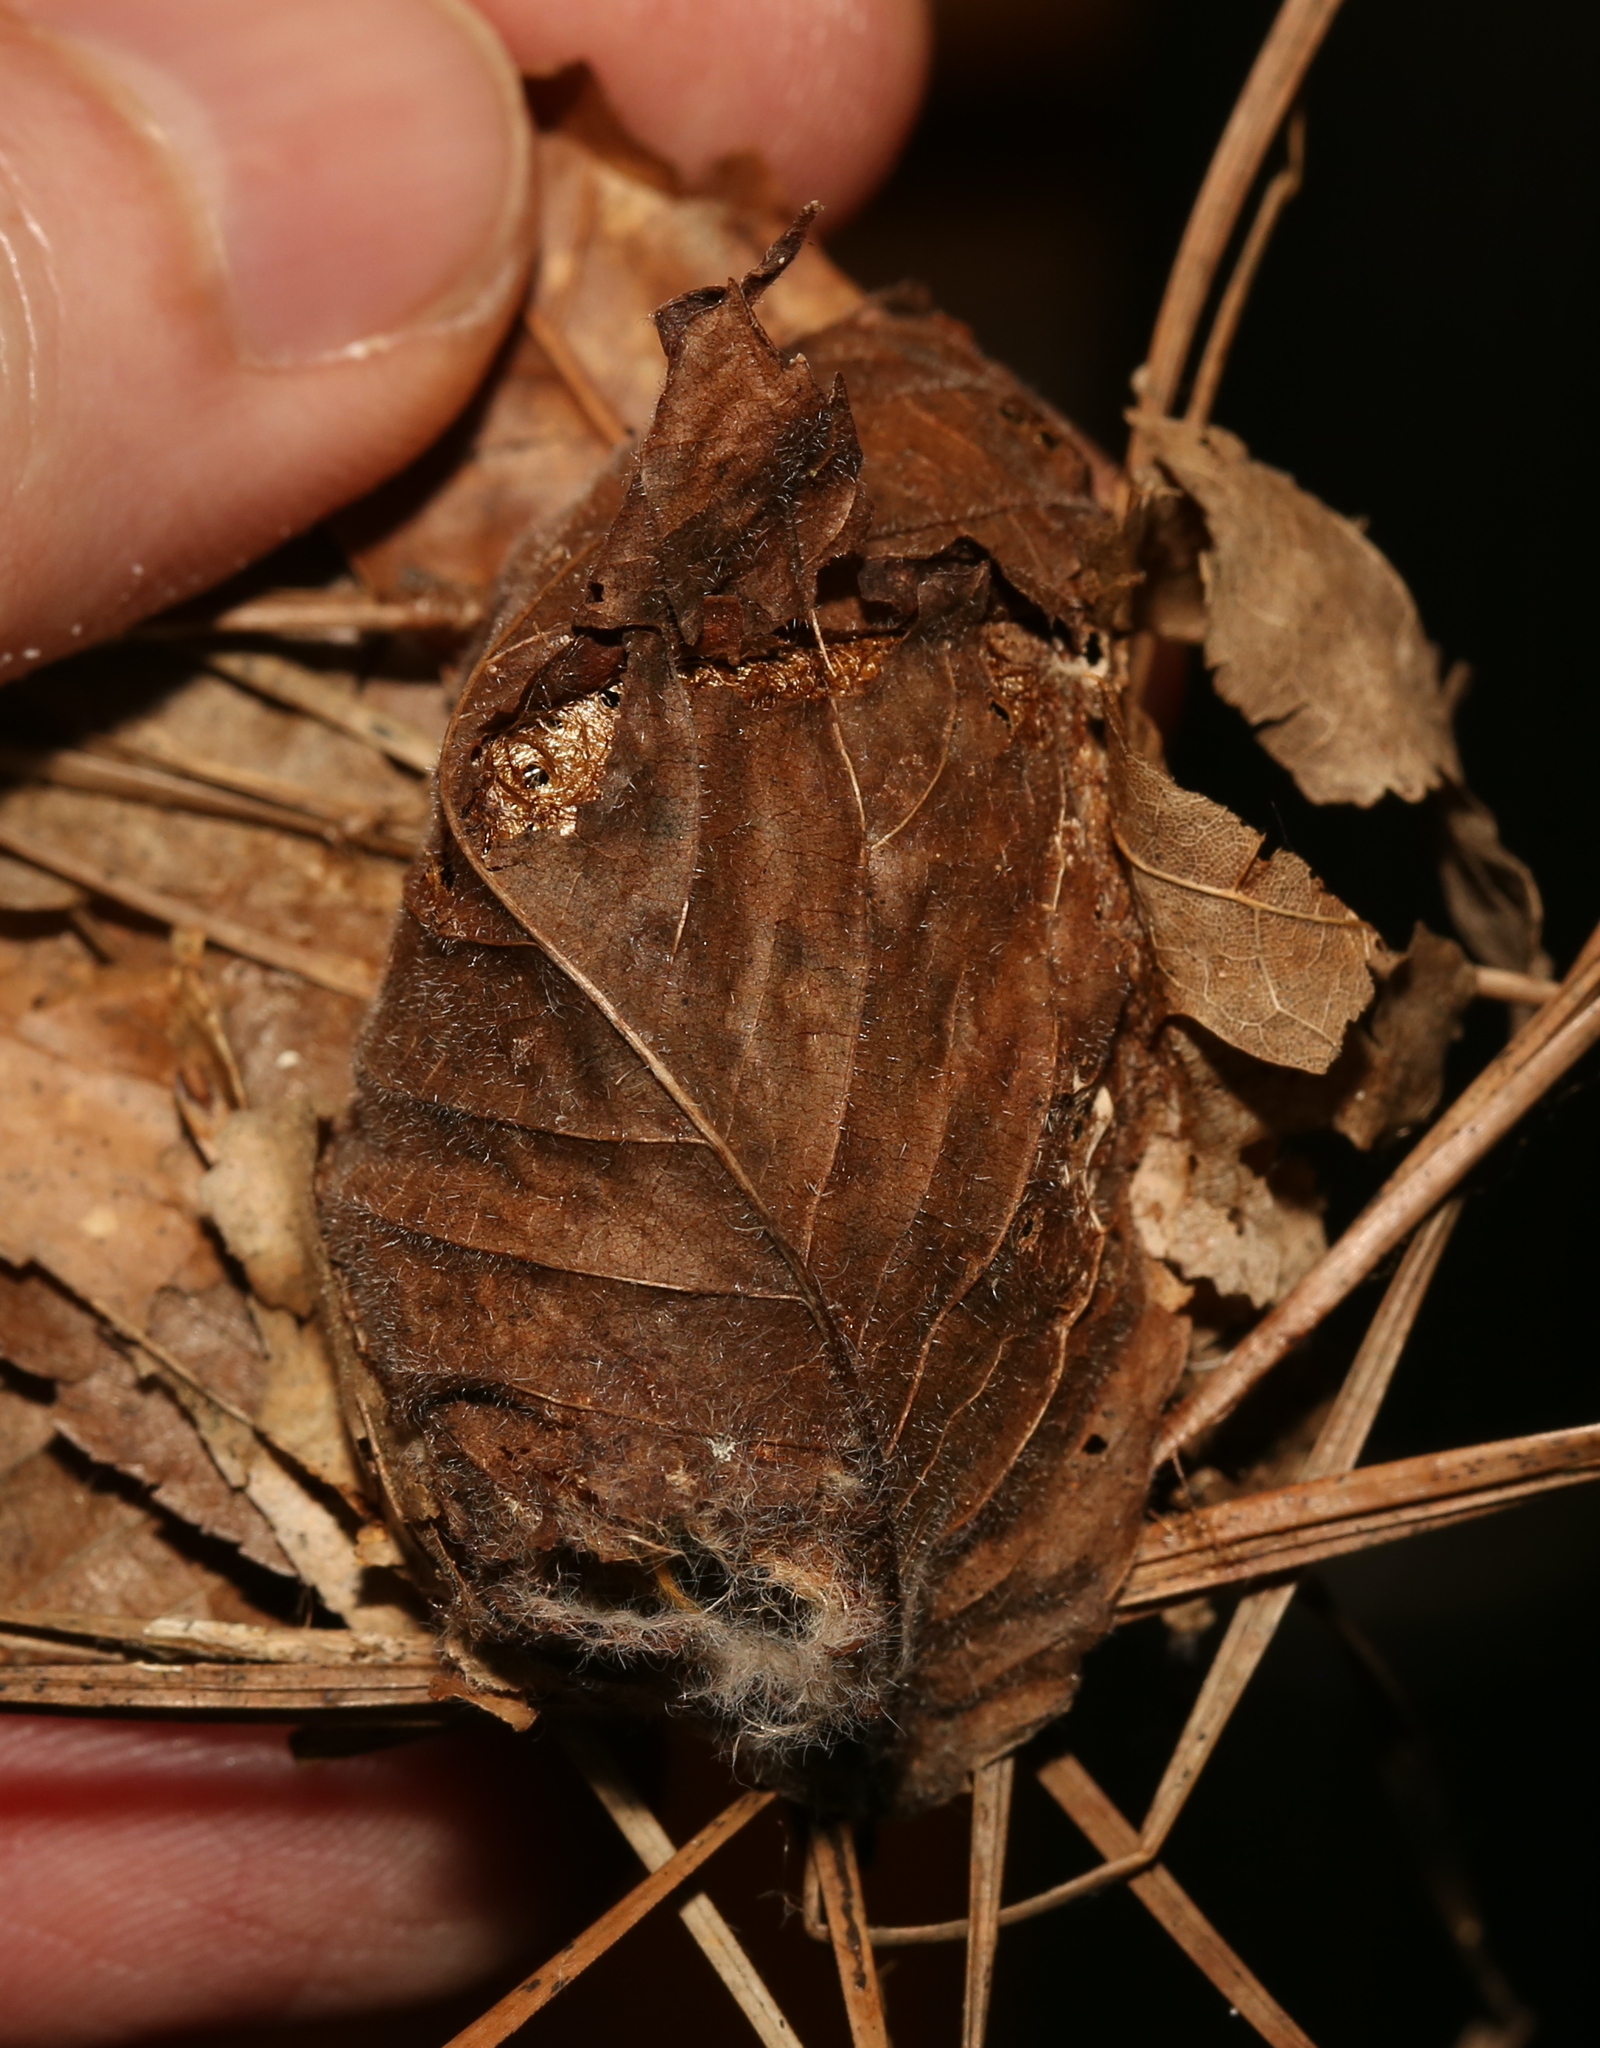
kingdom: Animalia
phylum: Arthropoda
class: Insecta
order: Lepidoptera
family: Saturniidae
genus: Actias
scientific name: Actias luna
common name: Luna moth
